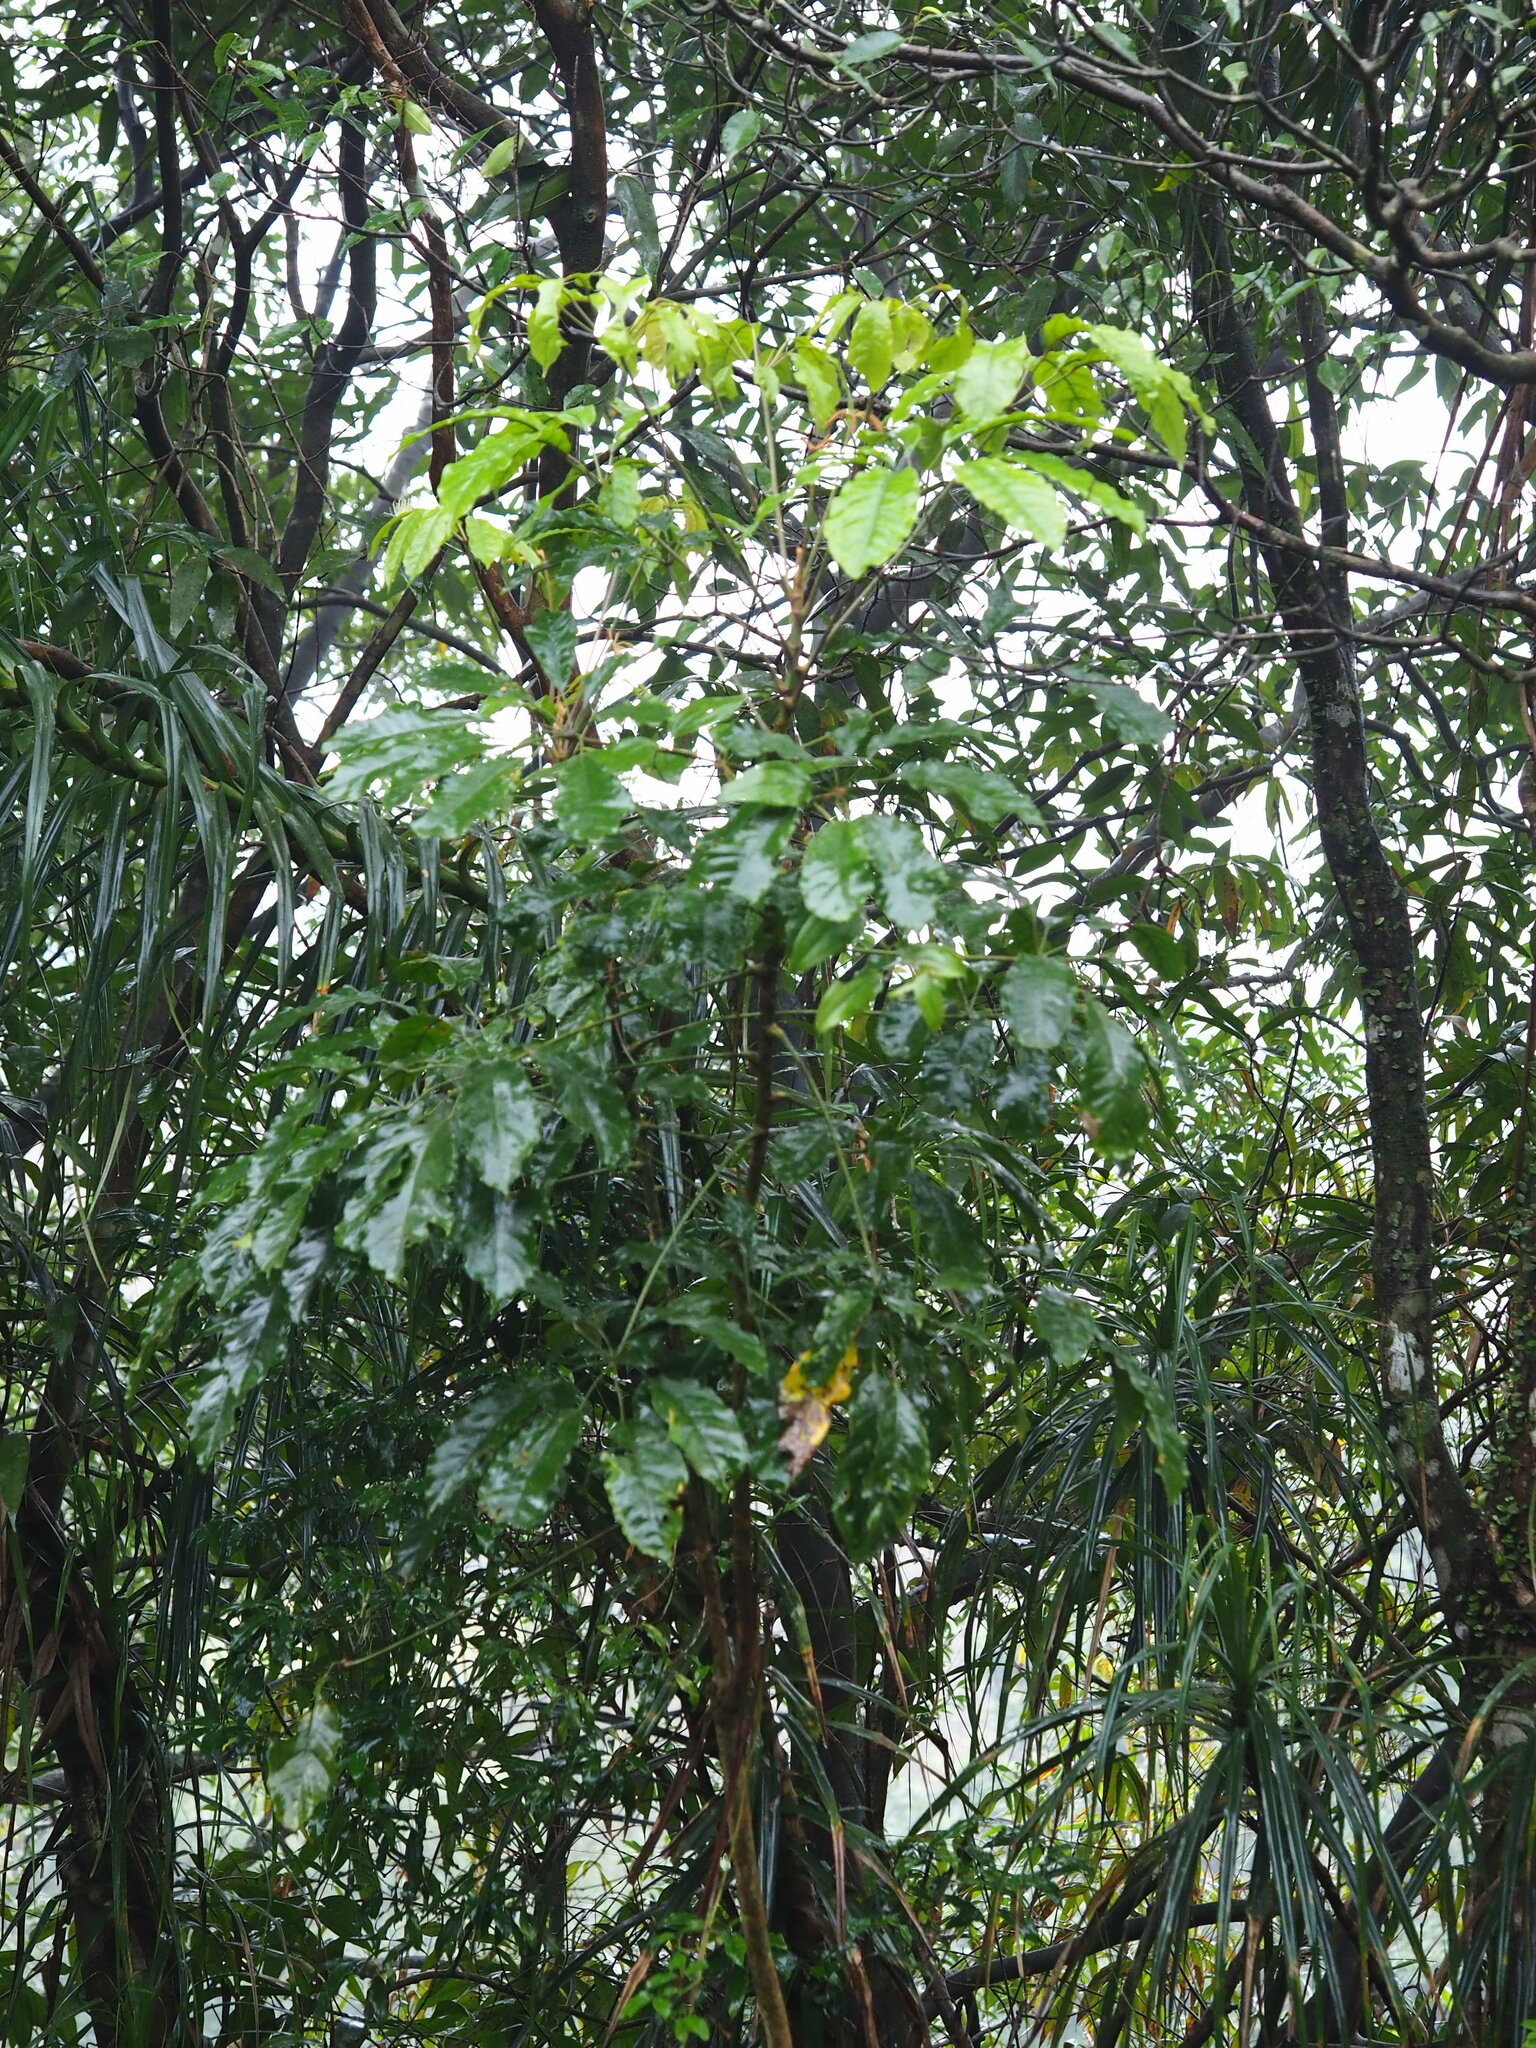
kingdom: Plantae
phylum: Tracheophyta
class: Magnoliopsida
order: Apiales
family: Araliaceae
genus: Heptapleurum
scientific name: Heptapleurum heptaphyllum
